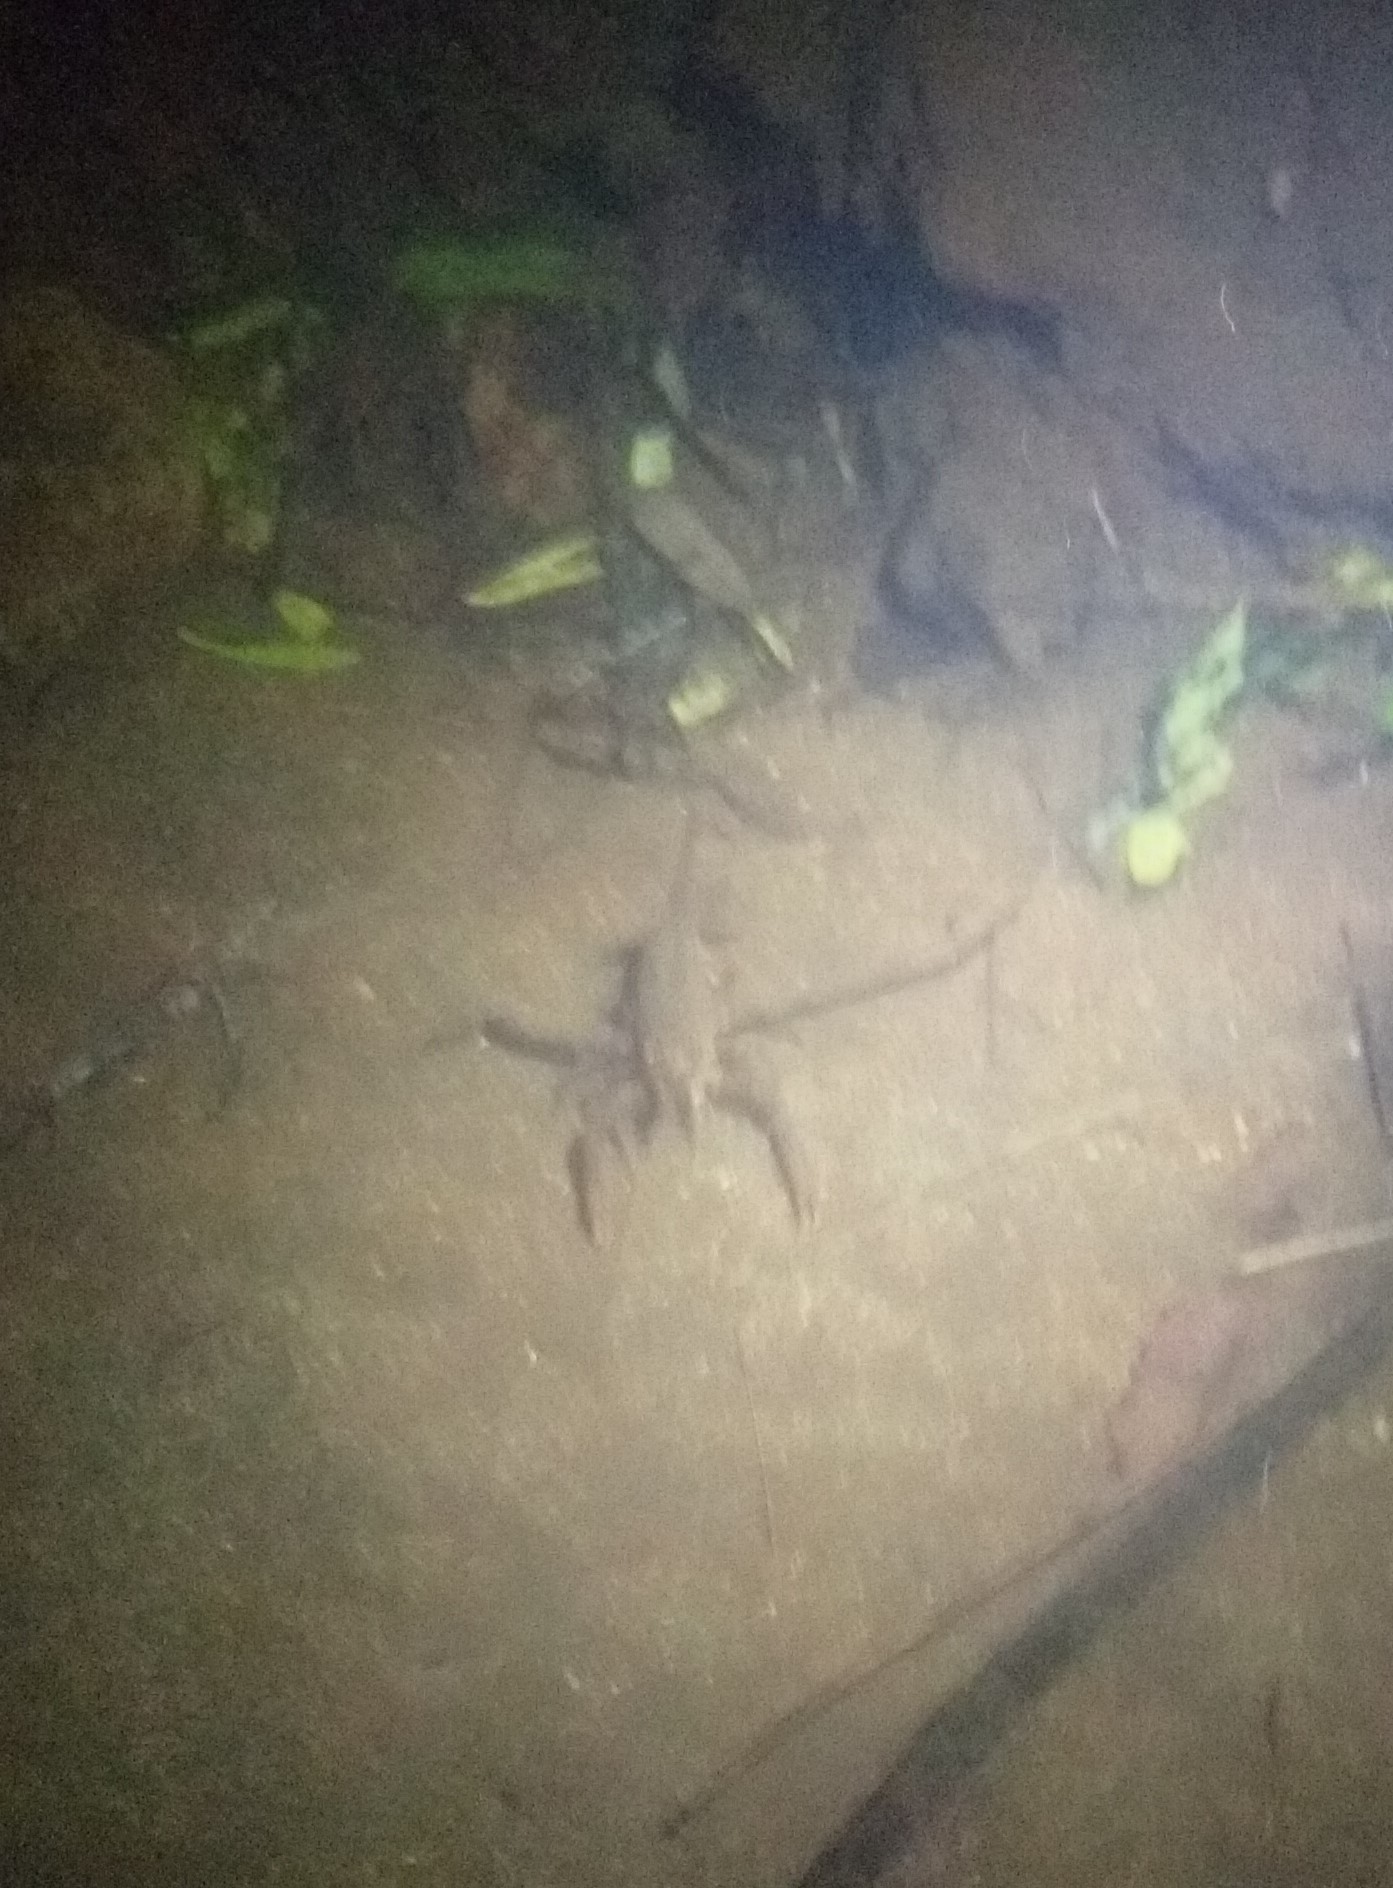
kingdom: Animalia
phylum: Arthropoda
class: Malacostraca
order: Decapoda
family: Parastacidae
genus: Paranephrops
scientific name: Paranephrops planifrons
